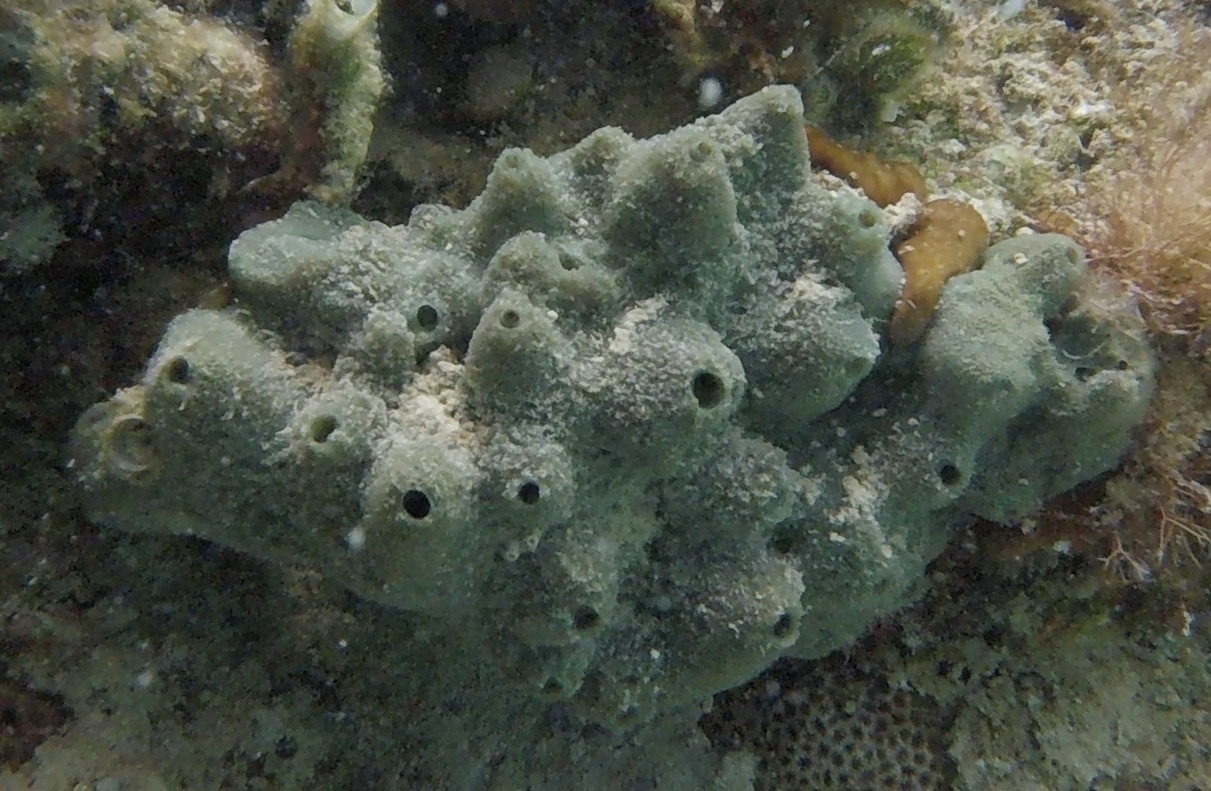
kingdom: Animalia
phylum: Porifera
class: Demospongiae
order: Haplosclerida
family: Niphatidae
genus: Amphimedon
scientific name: Amphimedon viridis
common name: Green sponge
